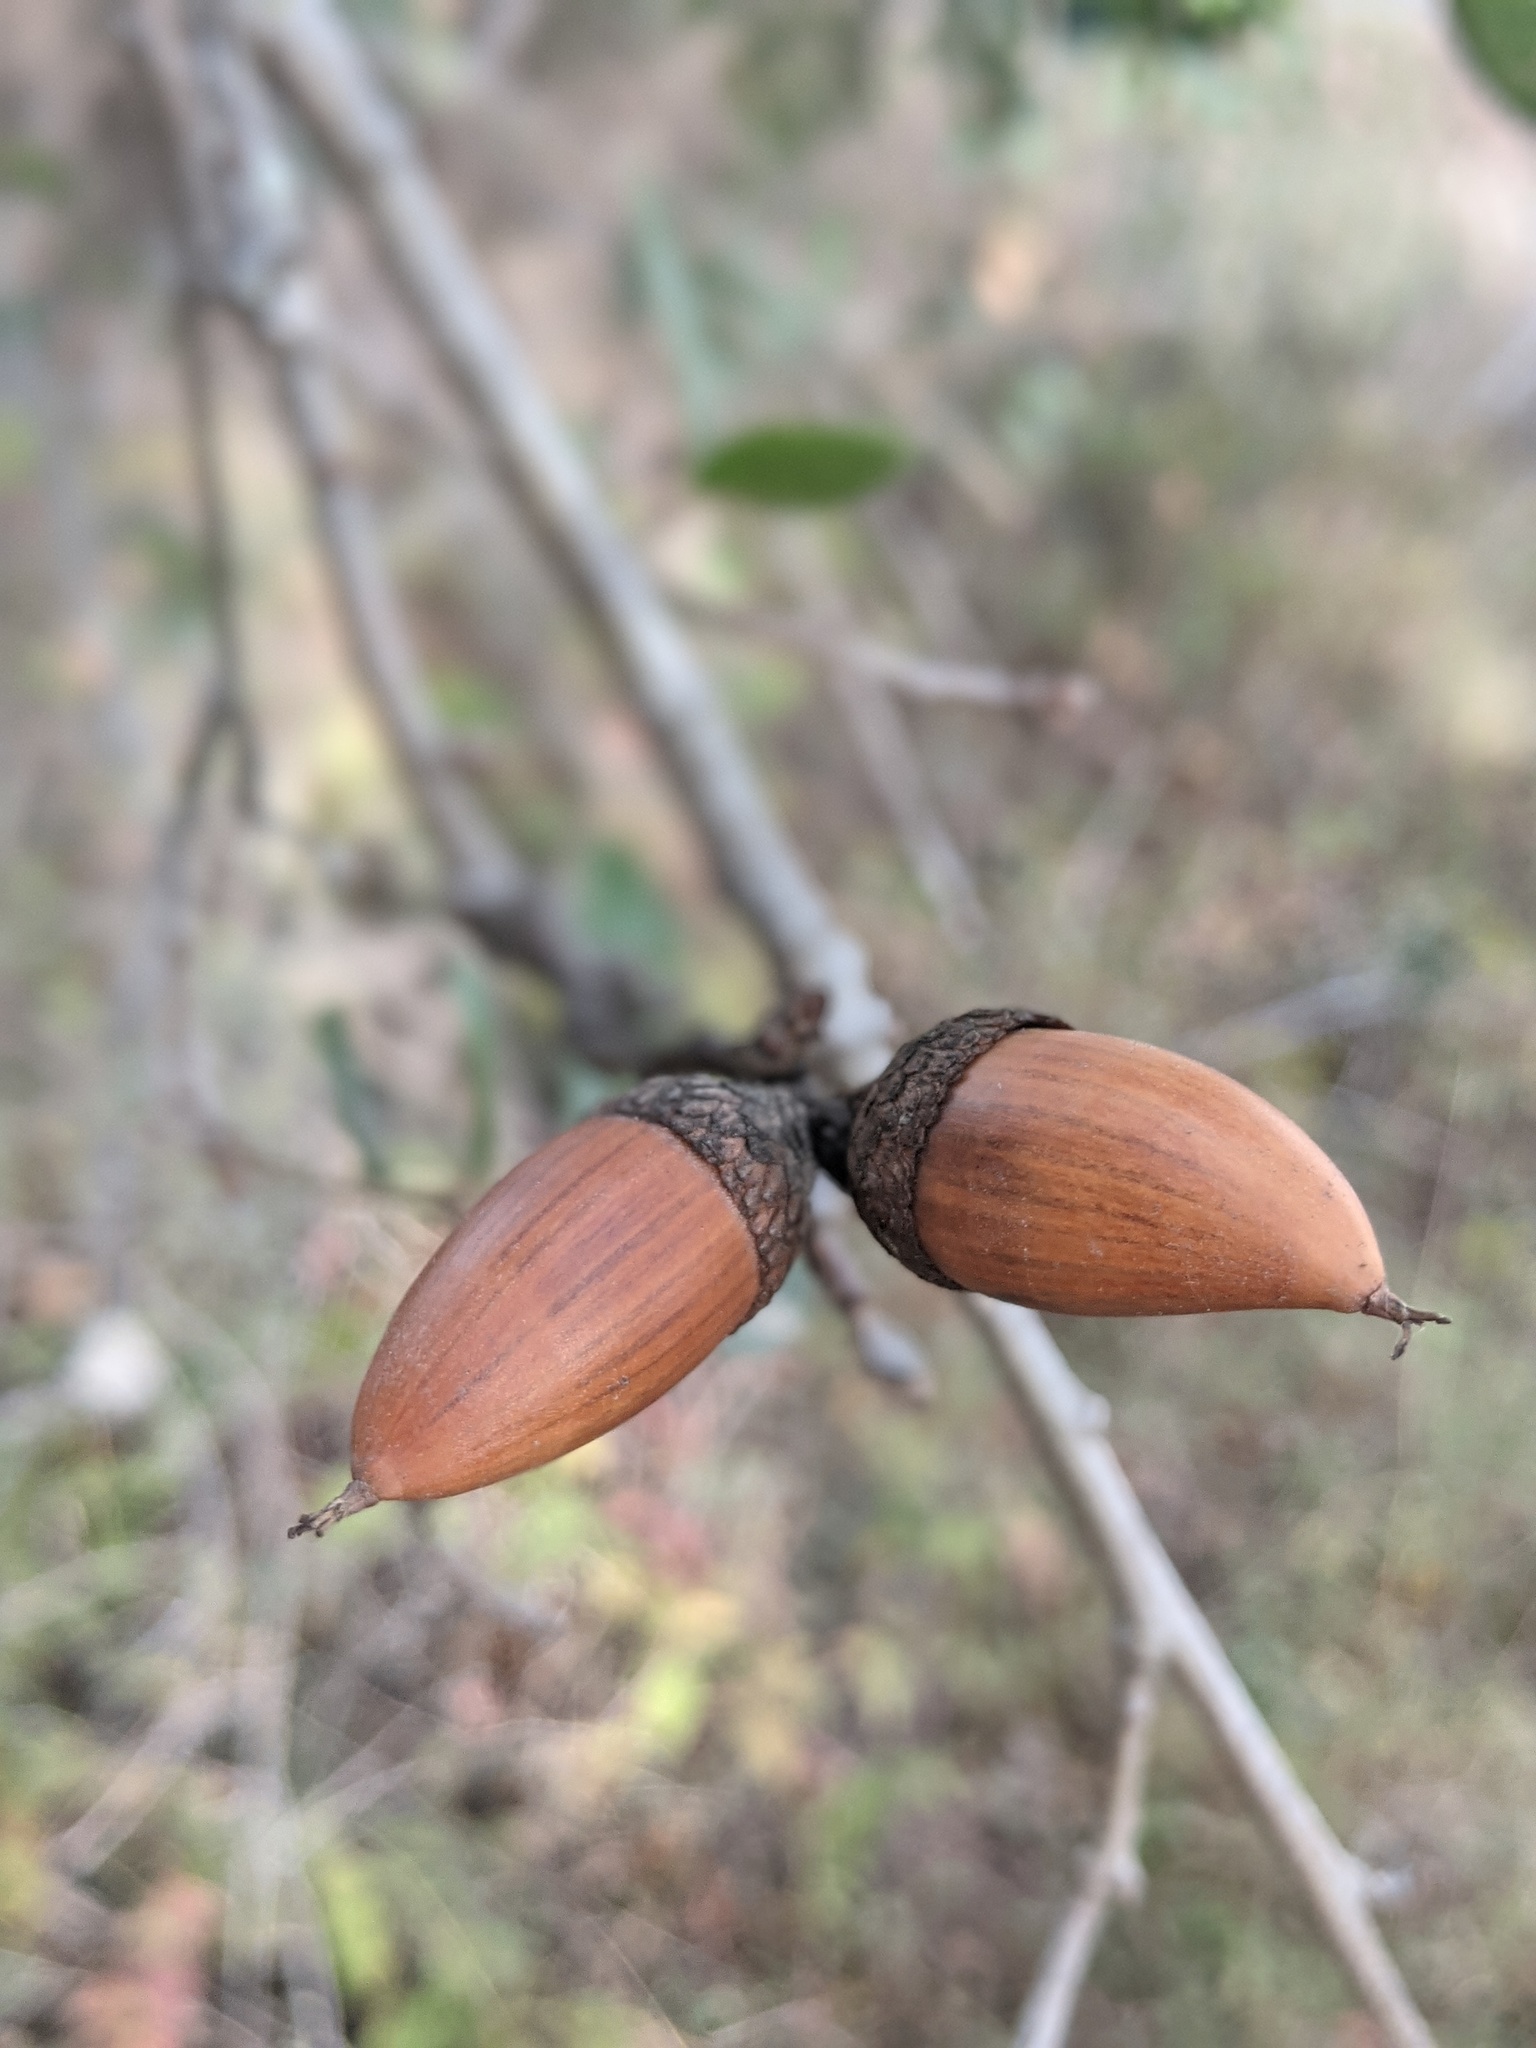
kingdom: Plantae
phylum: Tracheophyta
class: Magnoliopsida
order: Fagales
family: Fagaceae
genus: Quercus
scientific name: Quercus agrifolia
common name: California live oak
